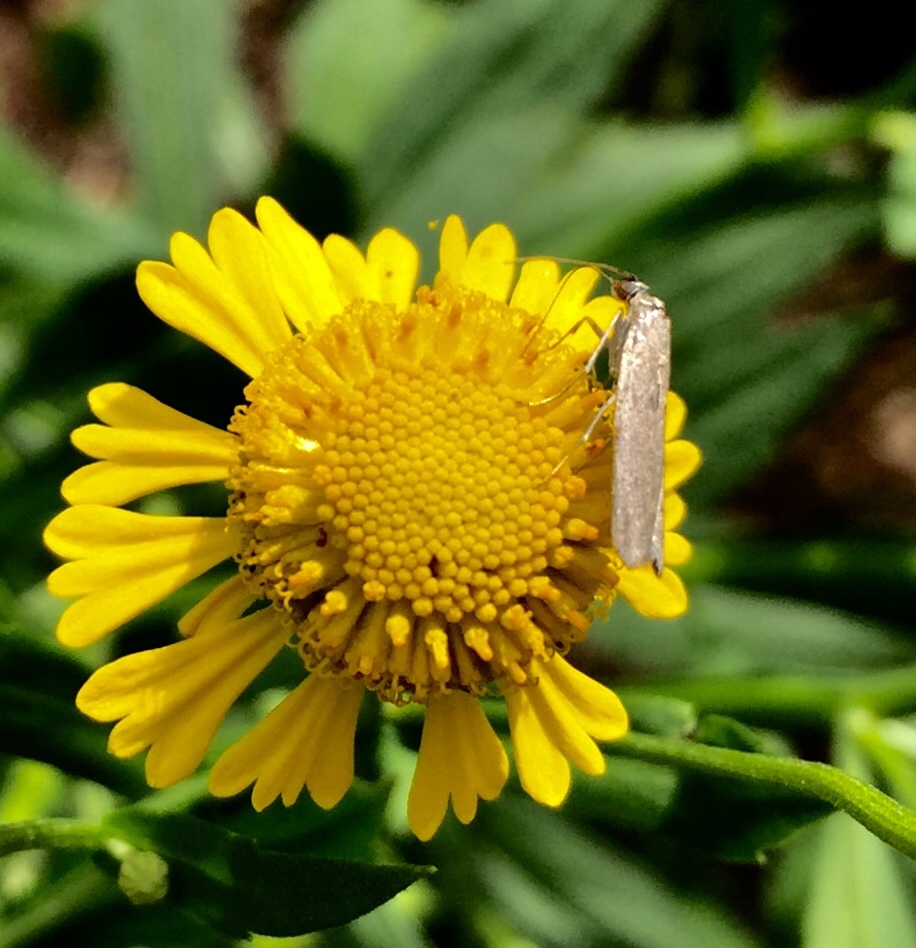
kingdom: Animalia
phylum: Arthropoda
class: Insecta
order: Lepidoptera
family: Pyralidae
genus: Homoeosoma
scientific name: Homoeosoma electella
